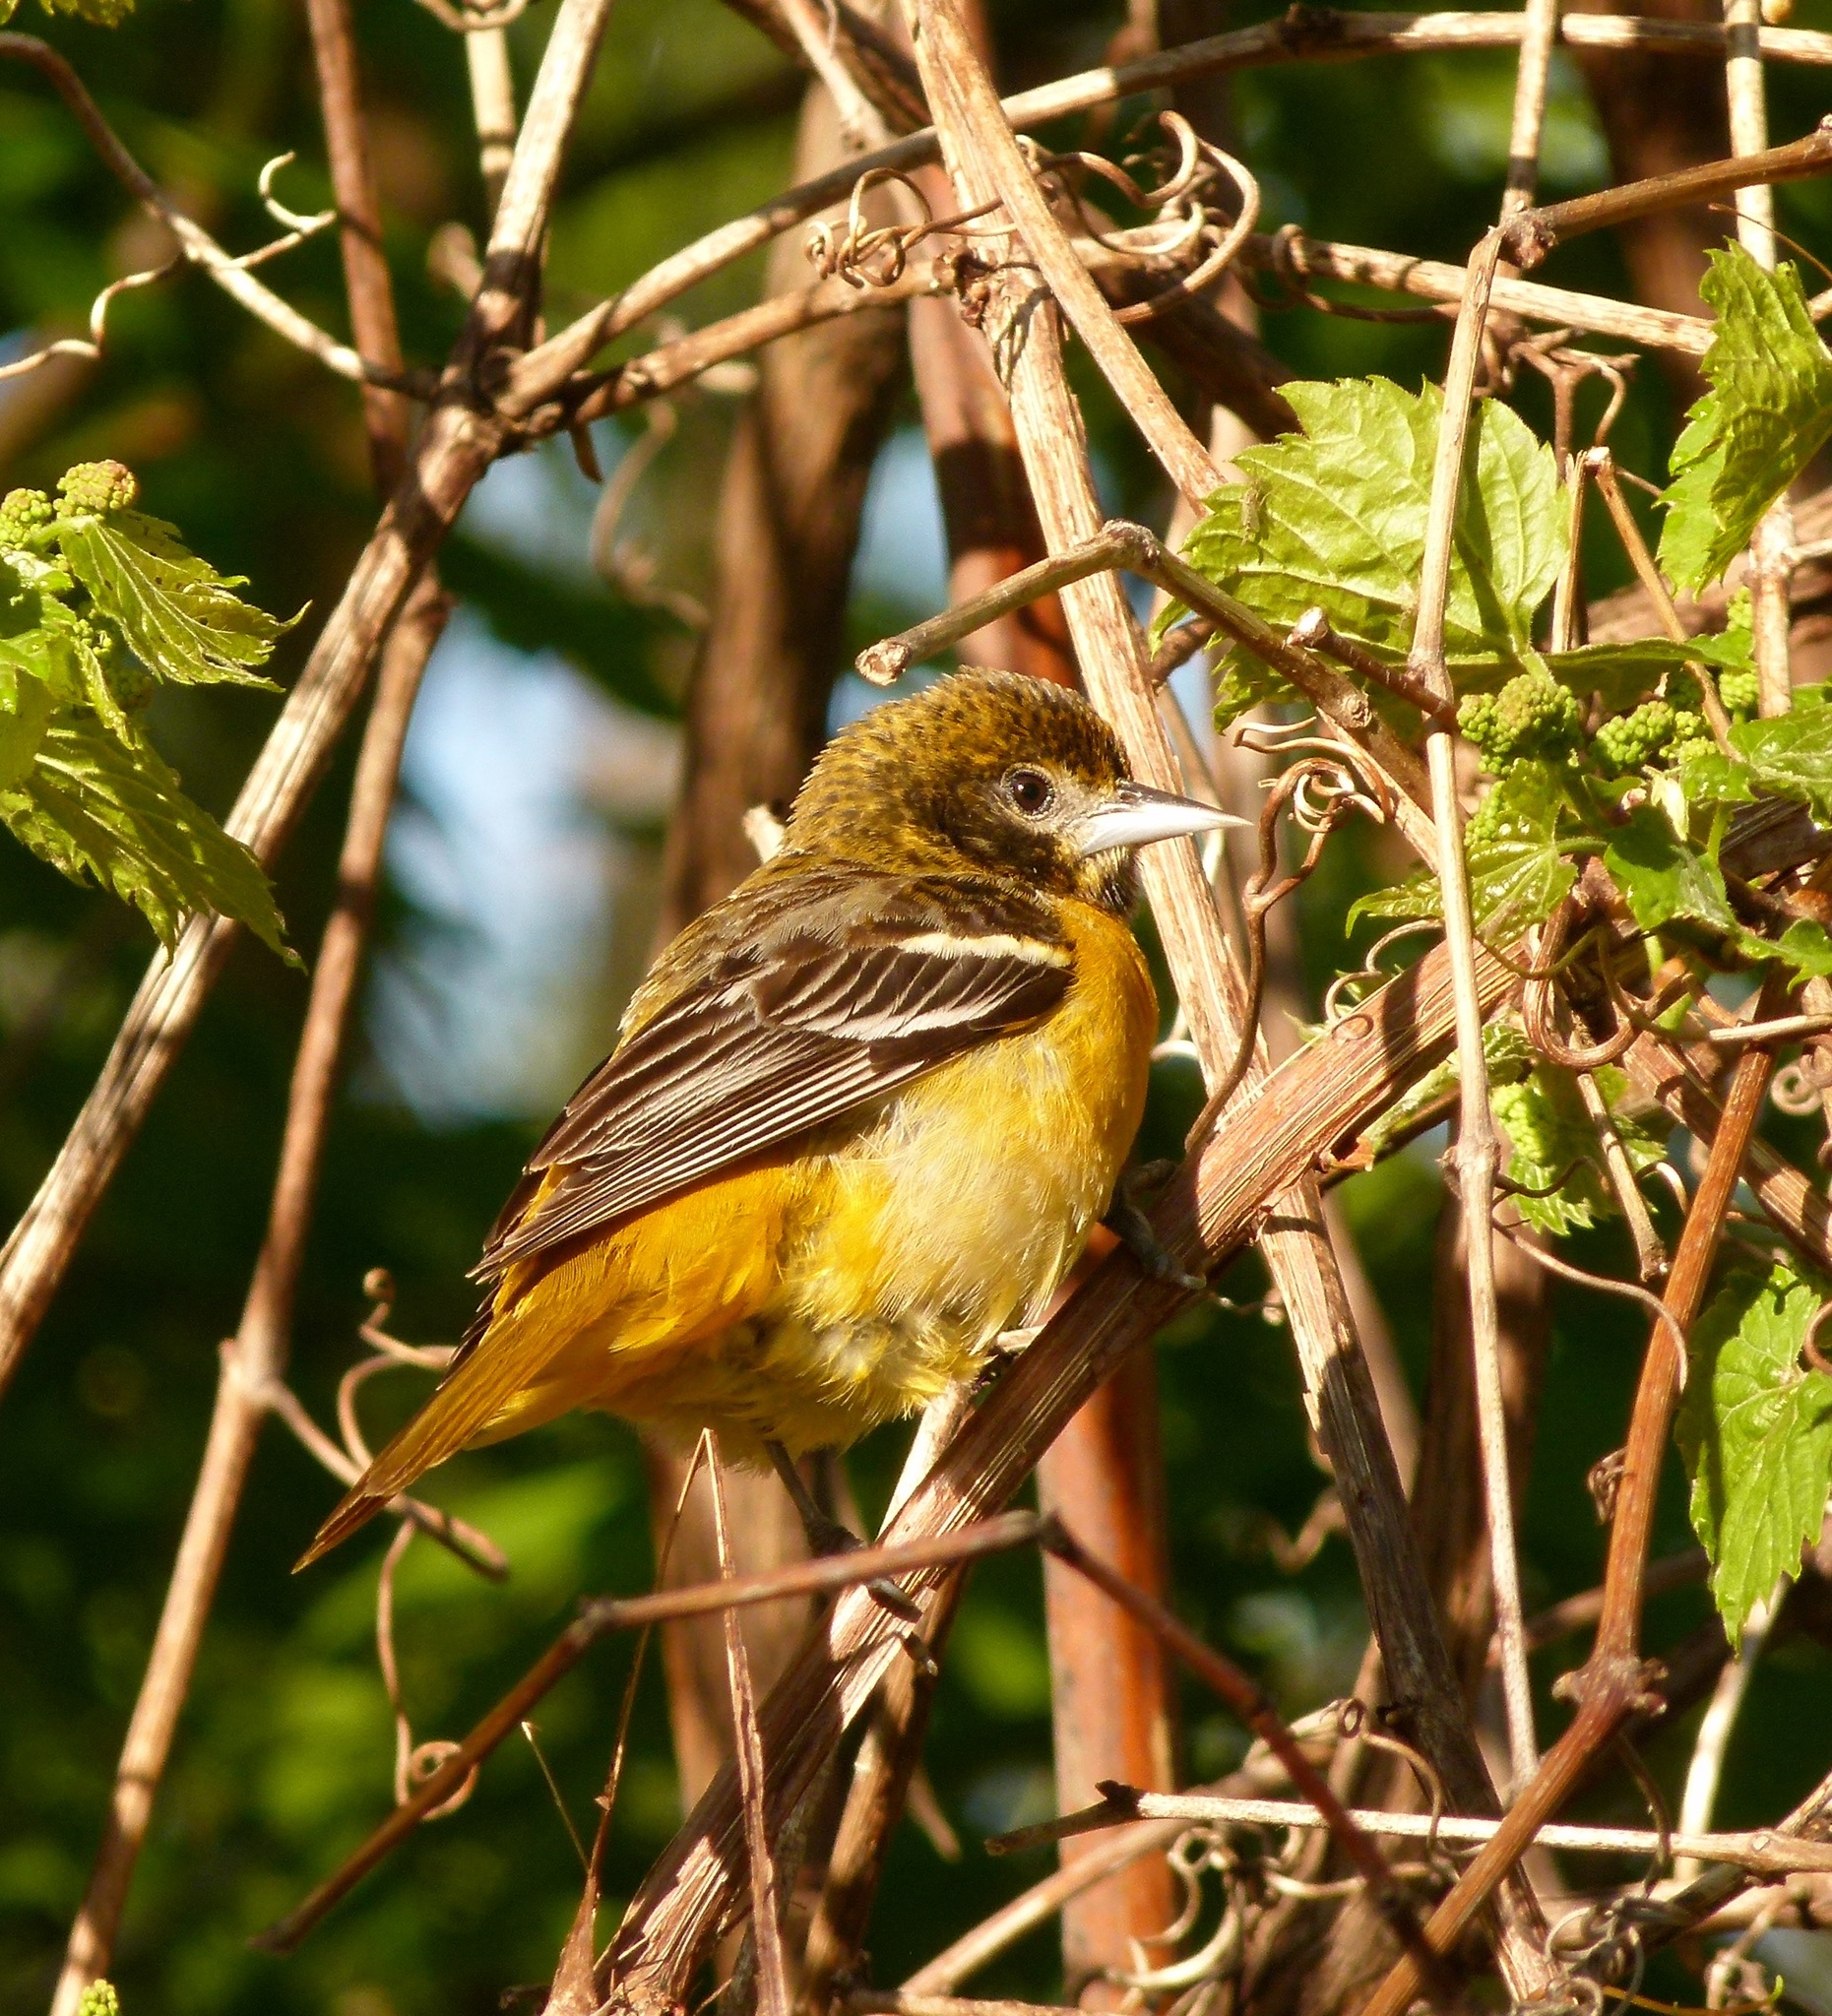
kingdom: Animalia
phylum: Chordata
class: Aves
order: Passeriformes
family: Icteridae
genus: Icterus
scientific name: Icterus galbula
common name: Baltimore oriole
